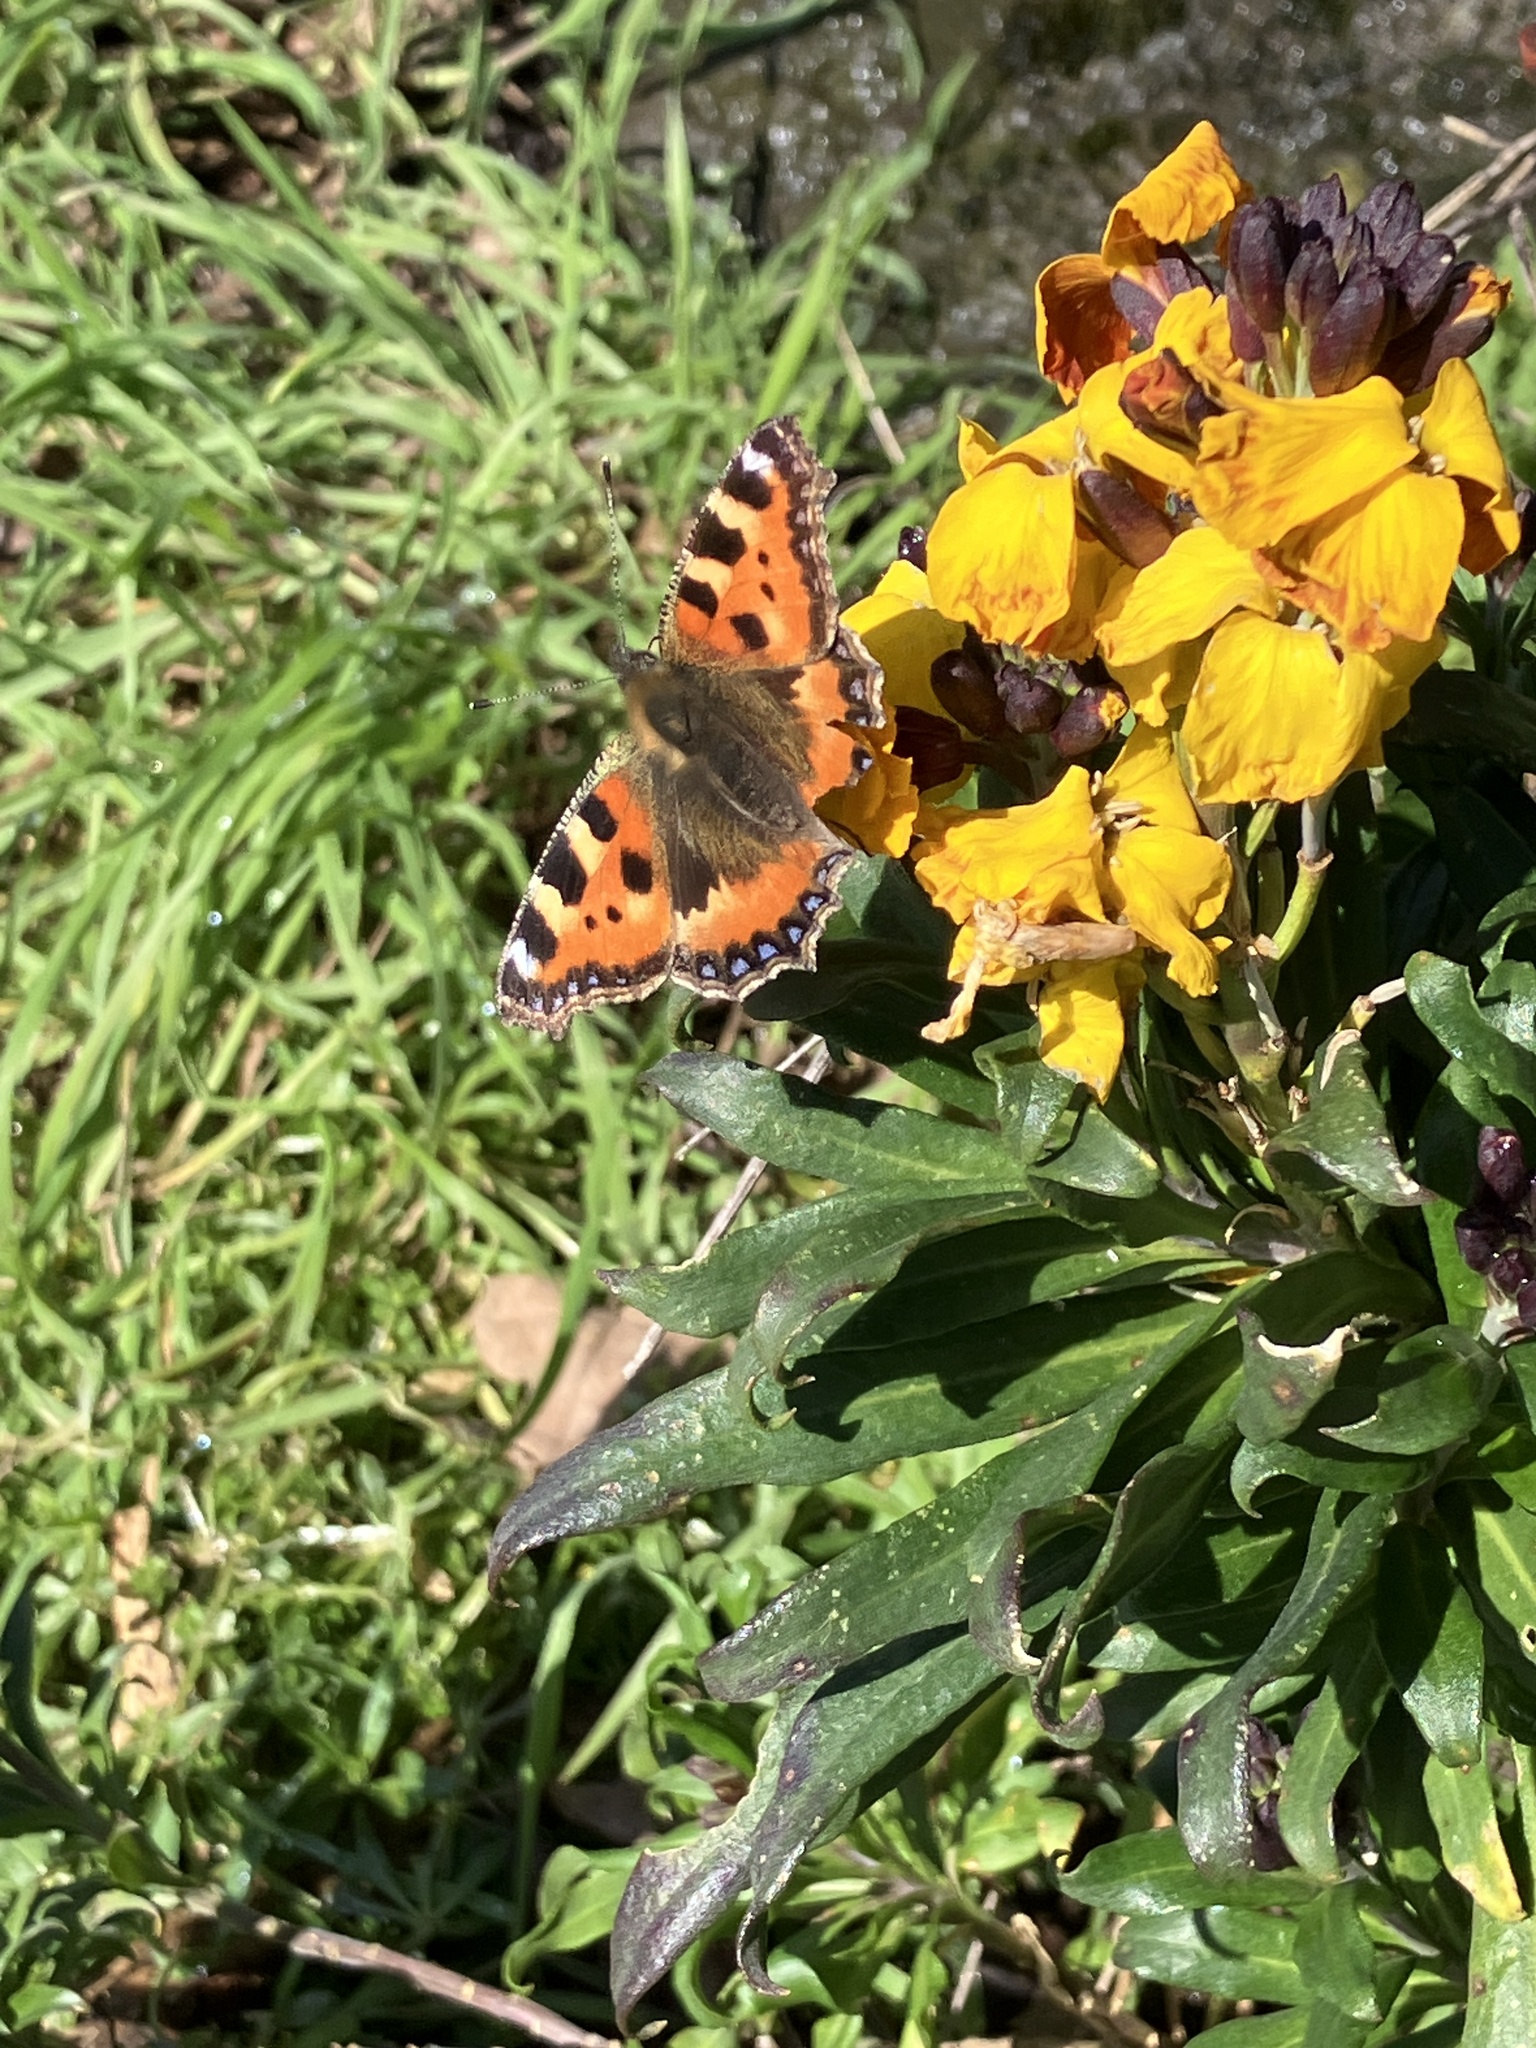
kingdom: Animalia
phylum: Arthropoda
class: Insecta
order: Lepidoptera
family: Nymphalidae
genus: Aglais
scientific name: Aglais urticae
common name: Small tortoiseshell
